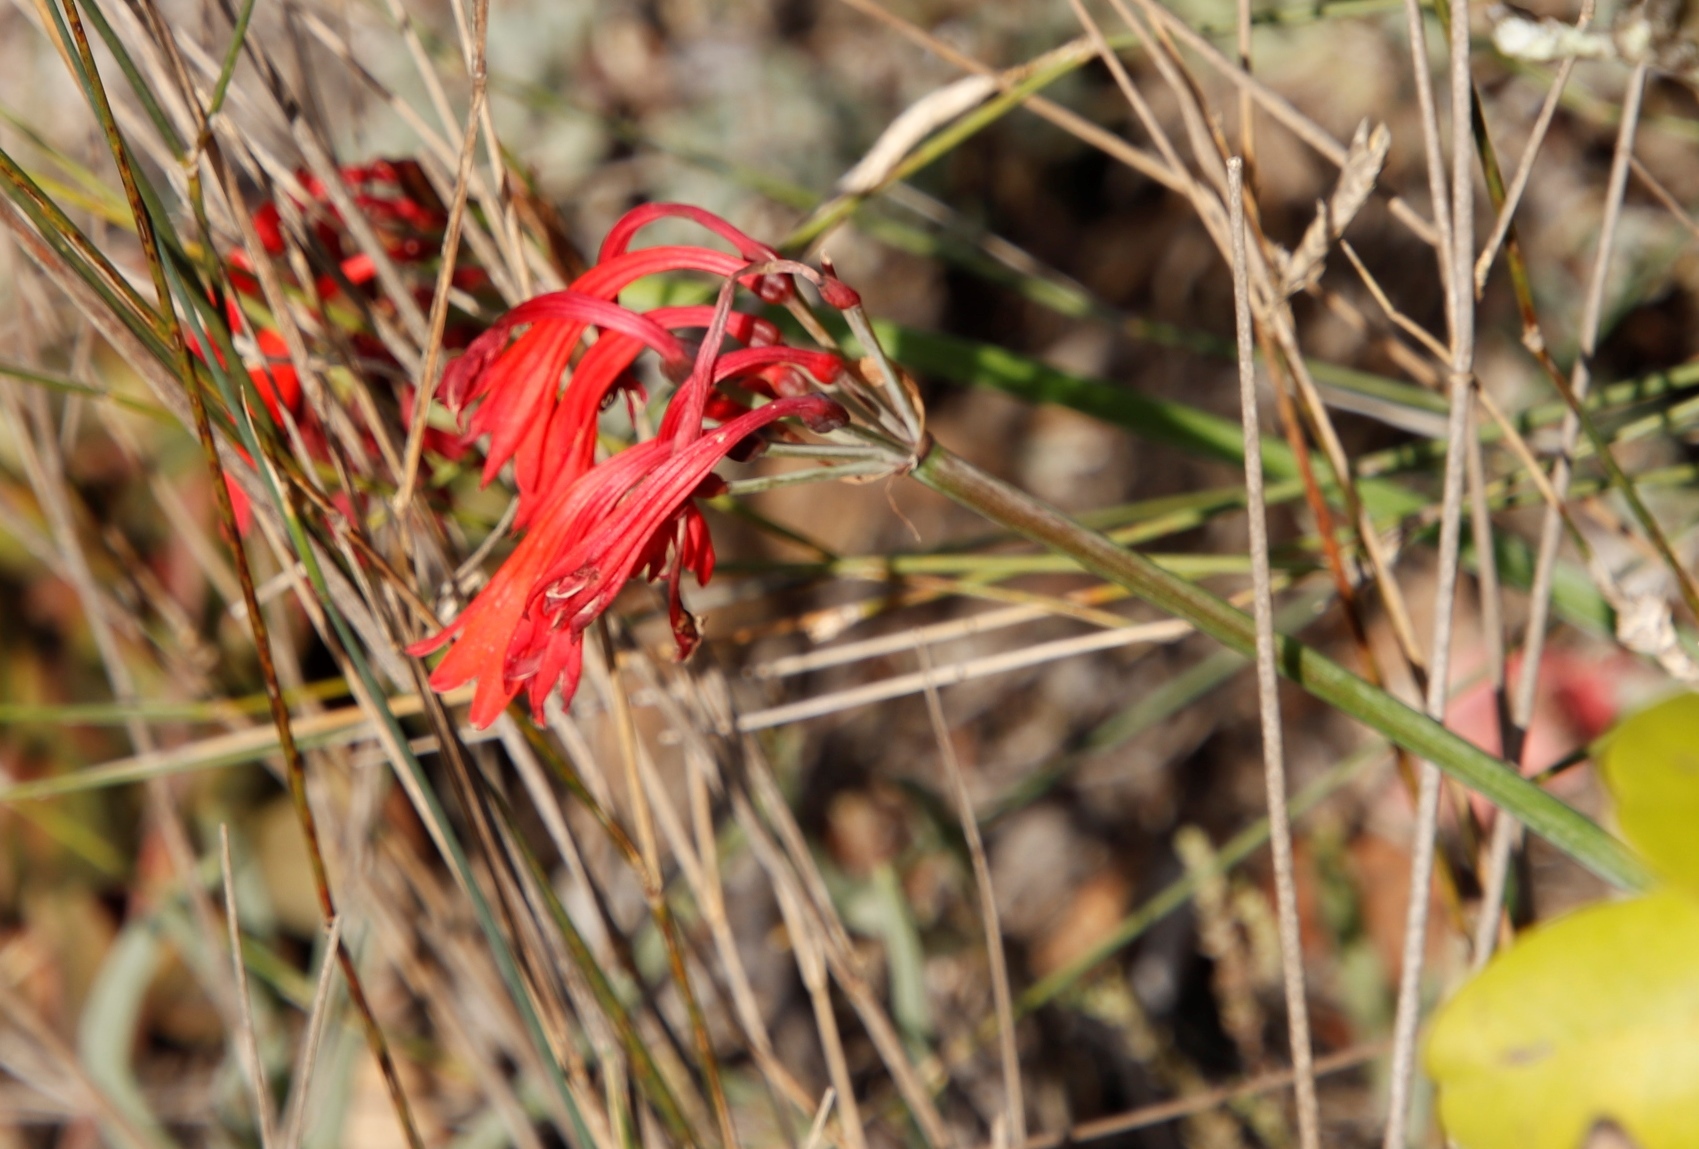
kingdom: Plantae
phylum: Tracheophyta
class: Liliopsida
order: Asparagales
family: Amaryllidaceae
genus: Cyrtanthus
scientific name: Cyrtanthus angustifolius
